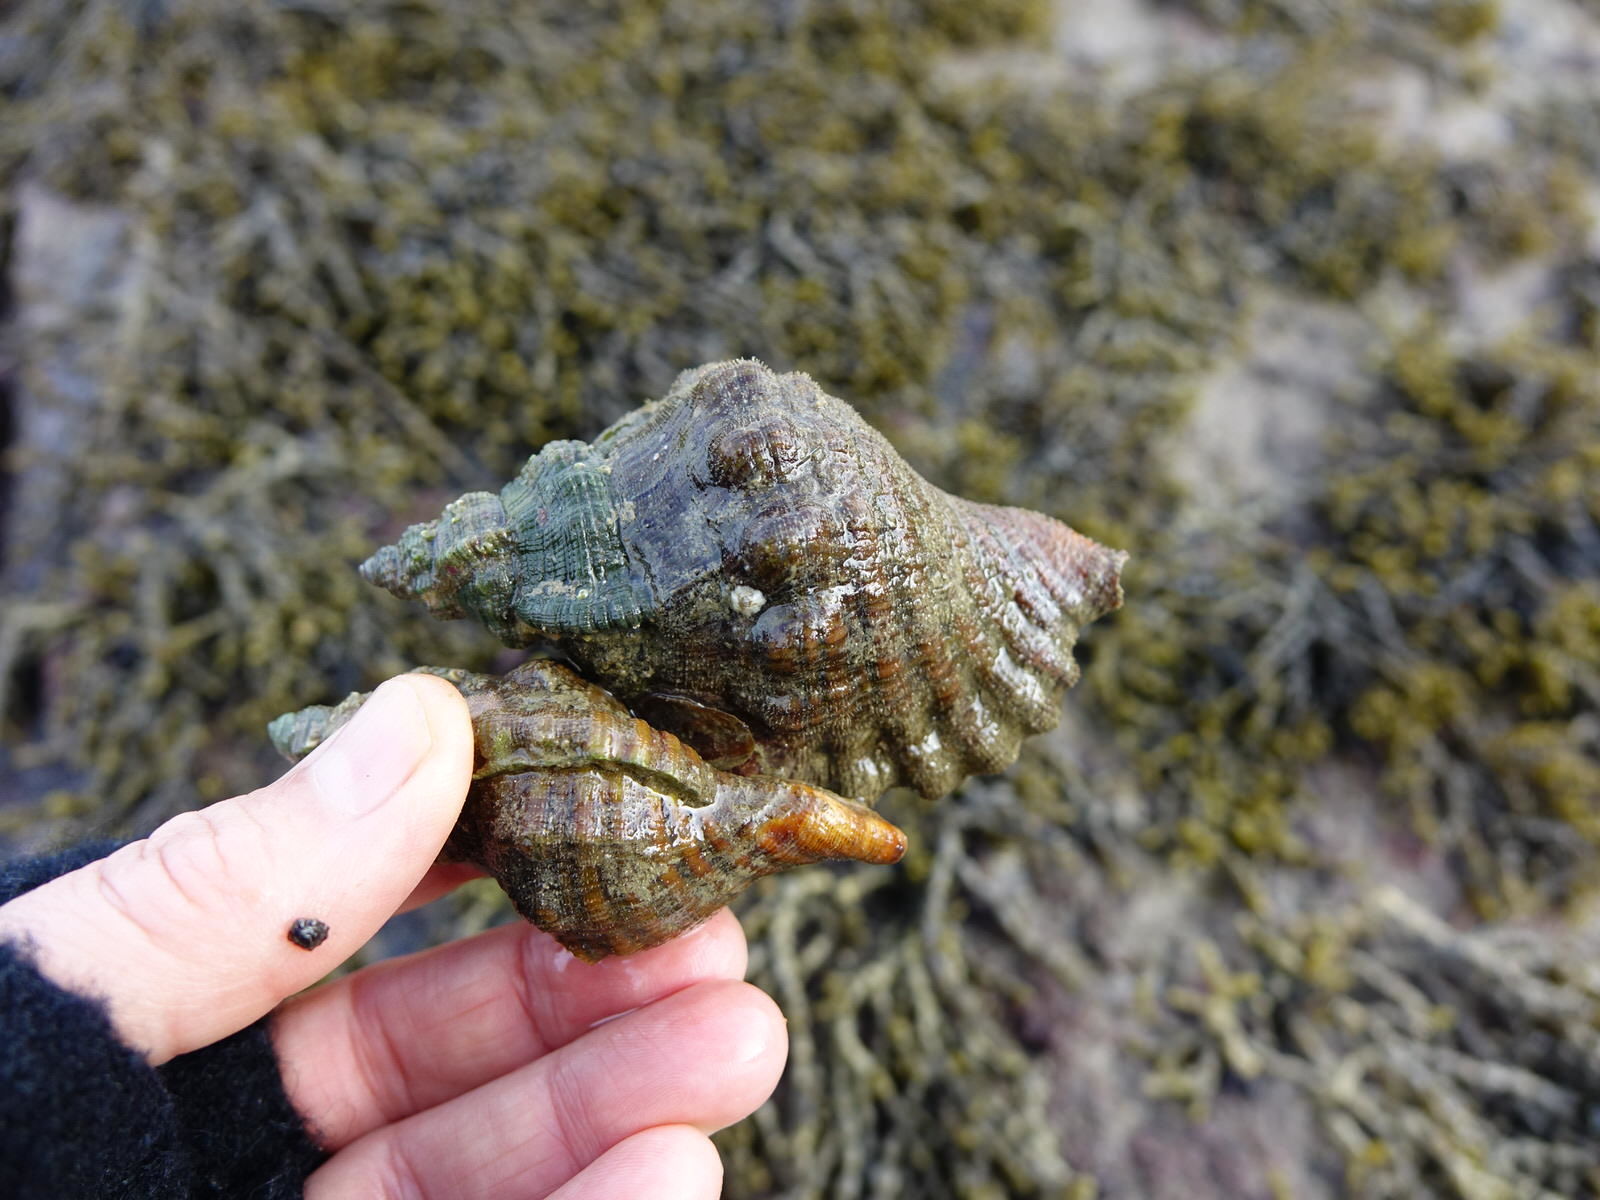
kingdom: Animalia
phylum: Mollusca
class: Gastropoda
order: Littorinimorpha
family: Cymatiidae
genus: Cabestana
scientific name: Cabestana spengleri
